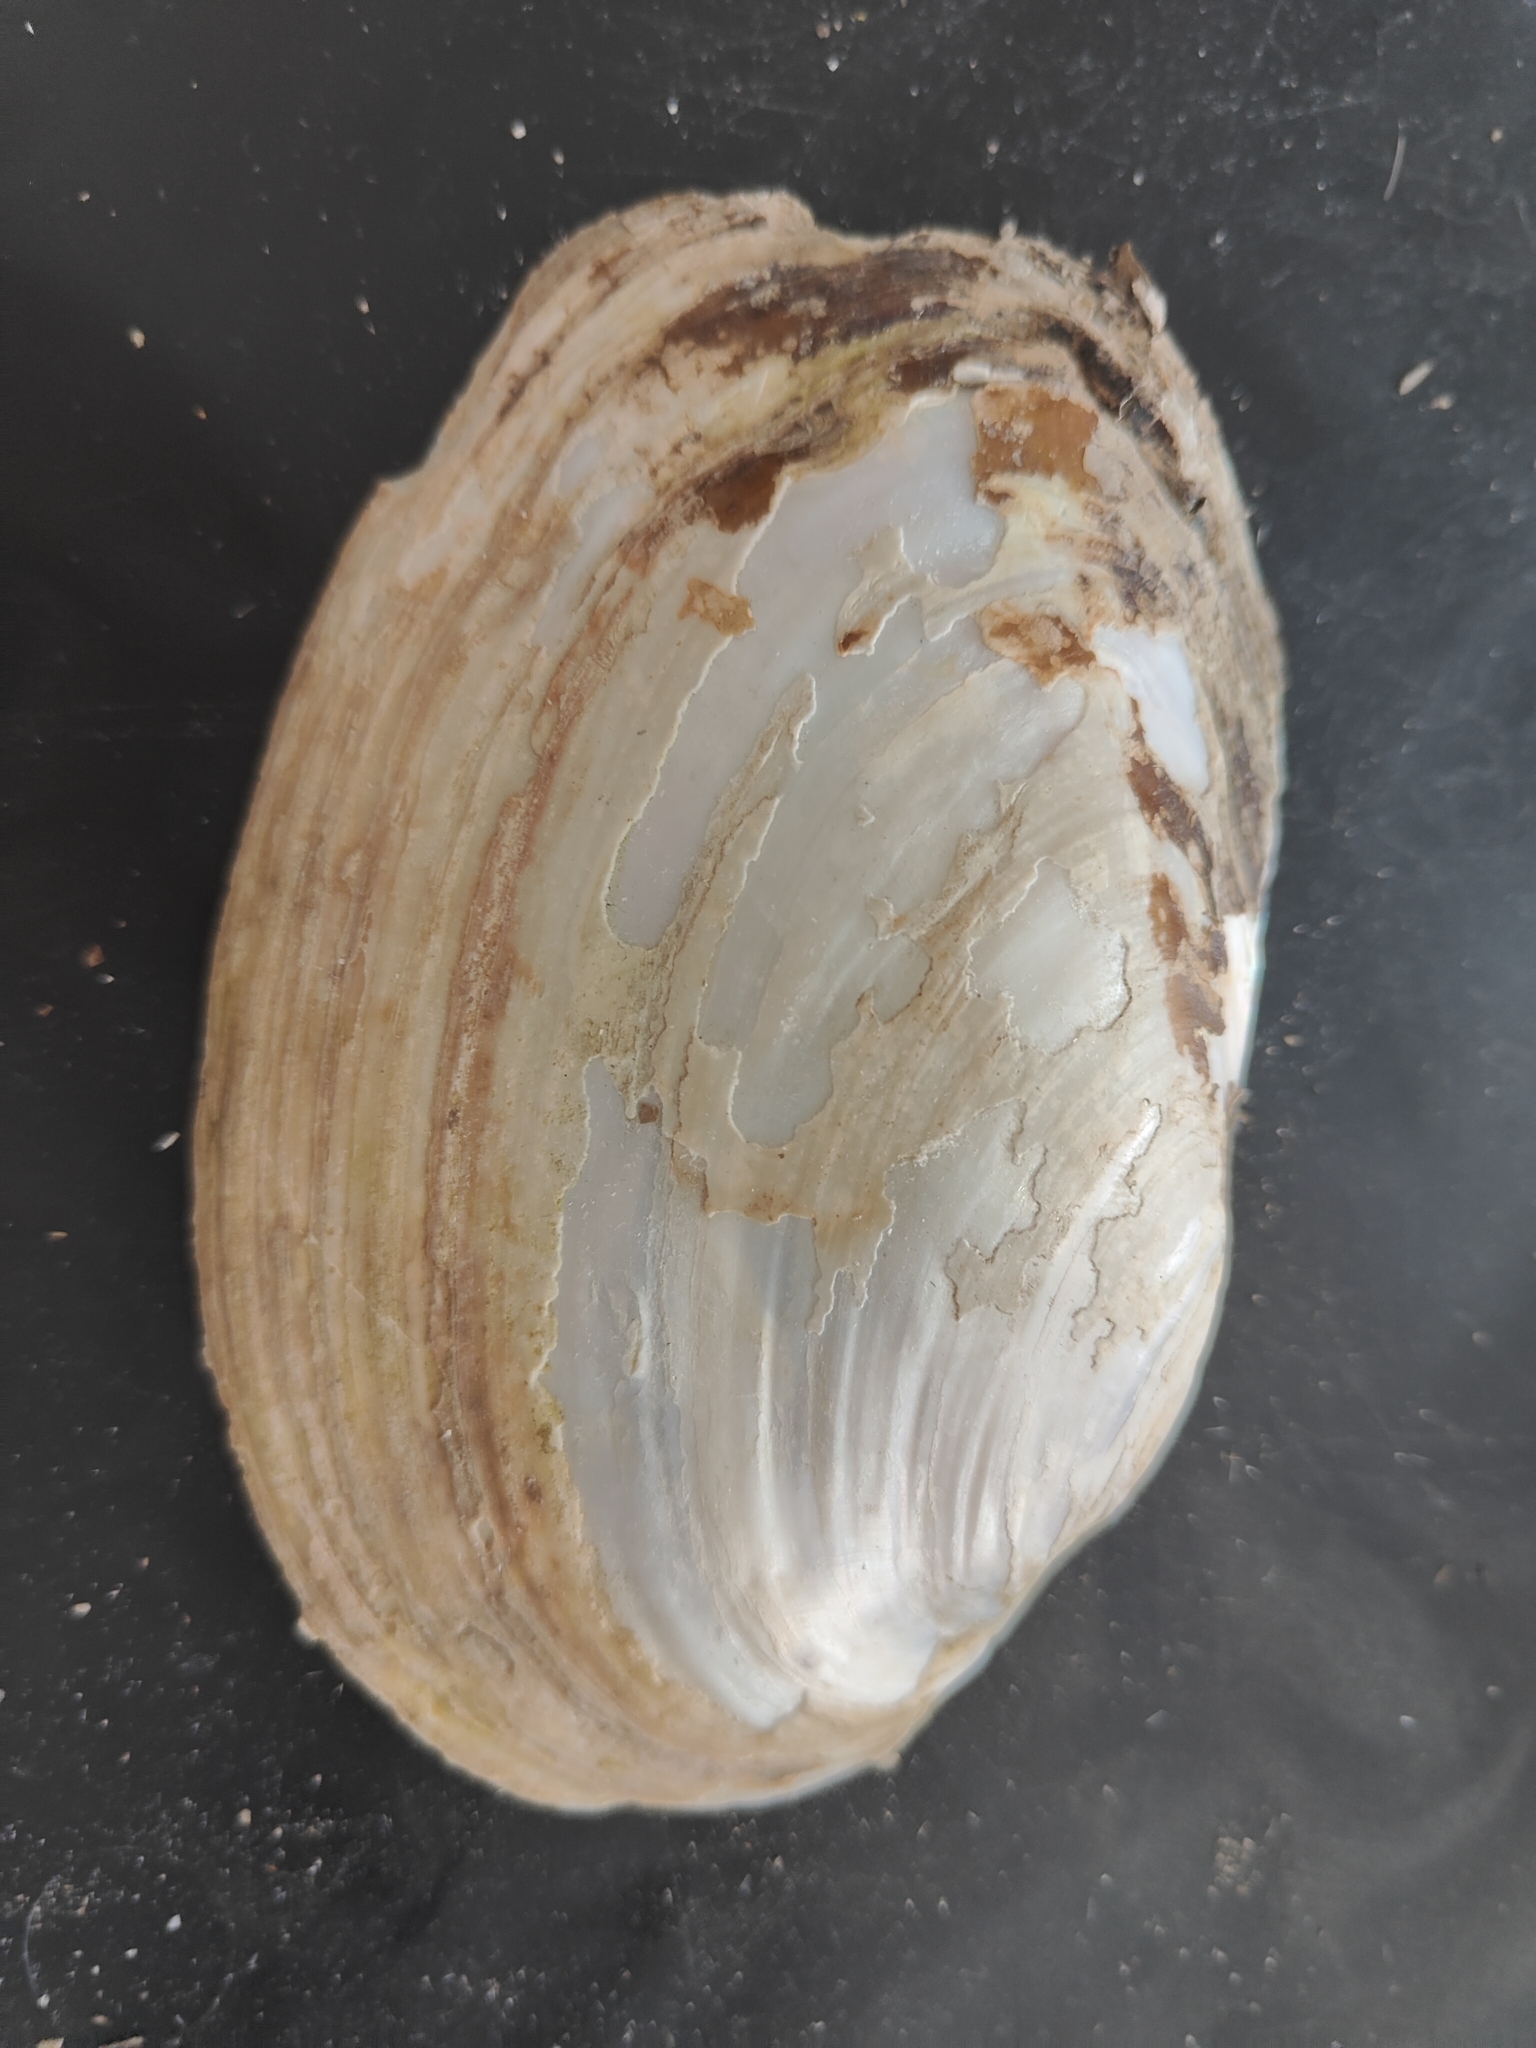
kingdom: Animalia
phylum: Mollusca
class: Bivalvia
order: Unionida
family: Unionidae
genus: Potamilus
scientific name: Potamilus fragilis
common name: Fragile papershell
